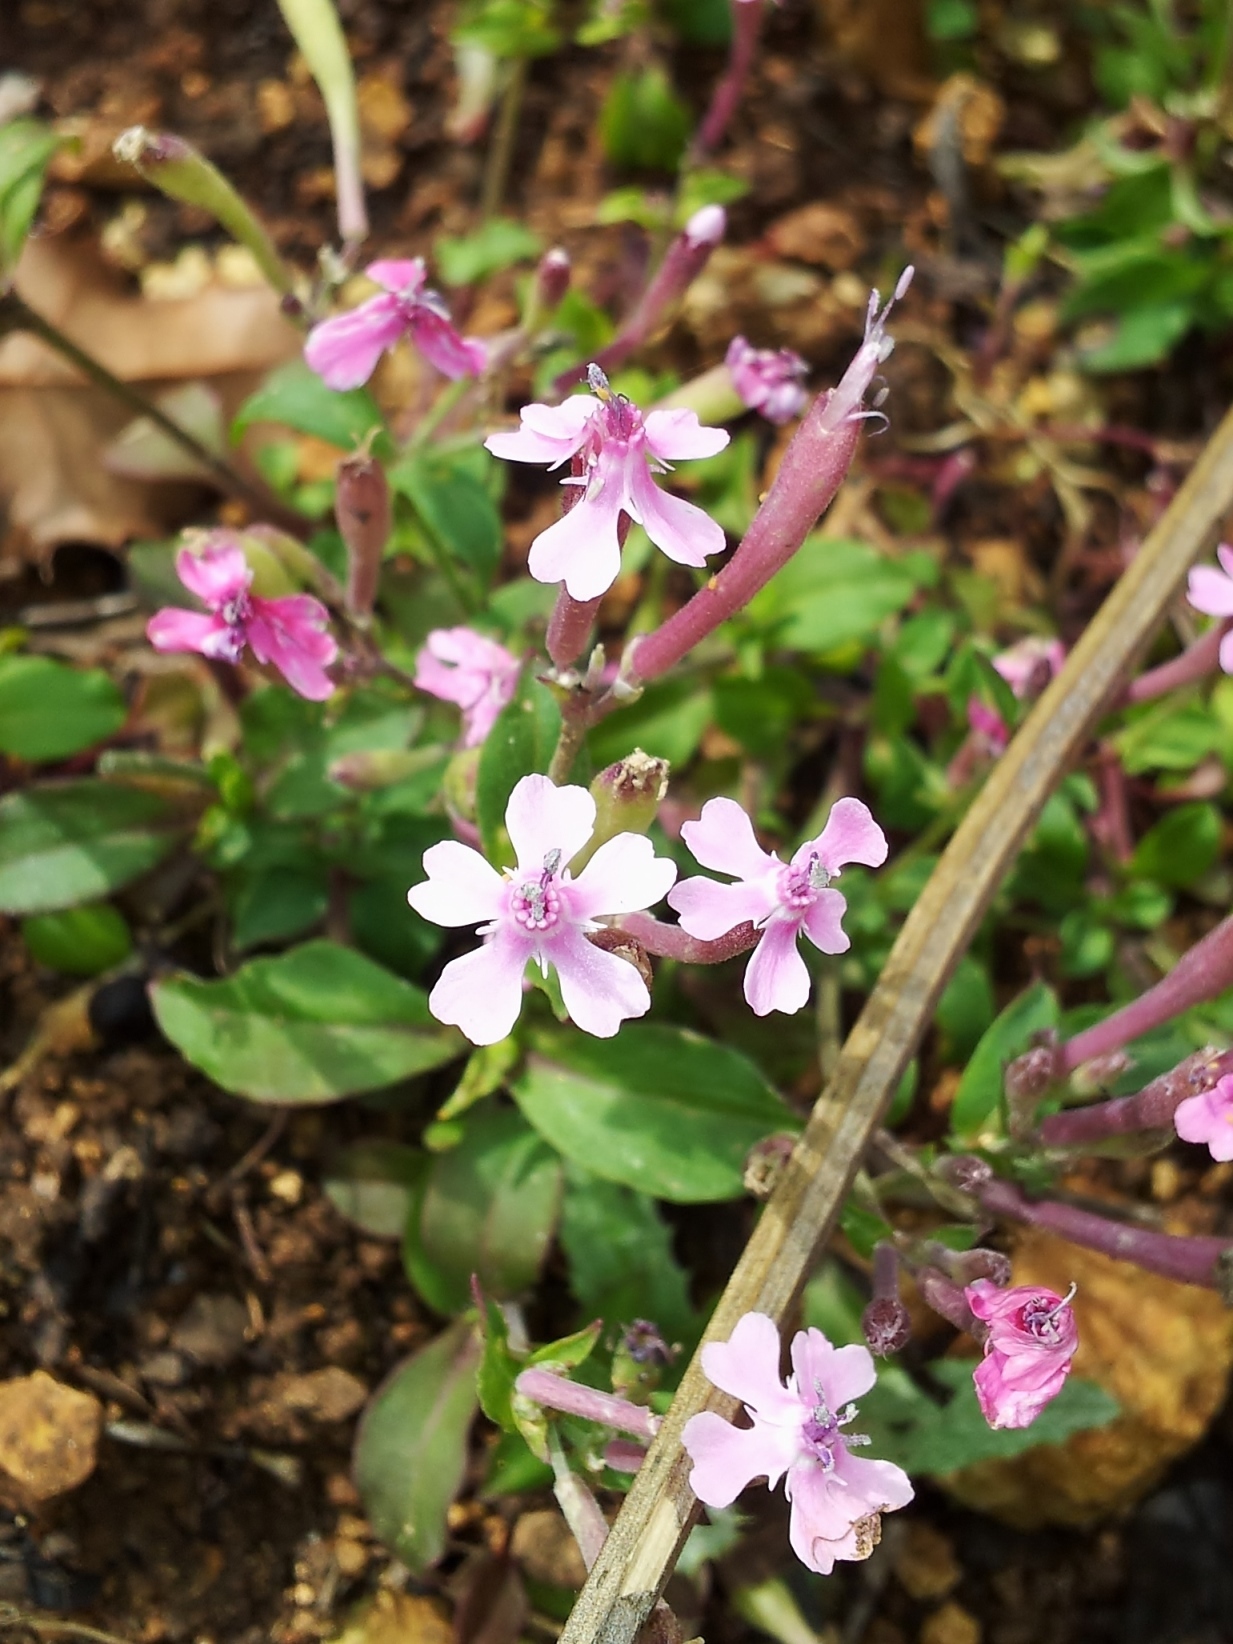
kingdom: Plantae
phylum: Tracheophyta
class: Magnoliopsida
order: Caryophyllales
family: Caryophyllaceae
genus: Silene
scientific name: Silene aegyptiaca
